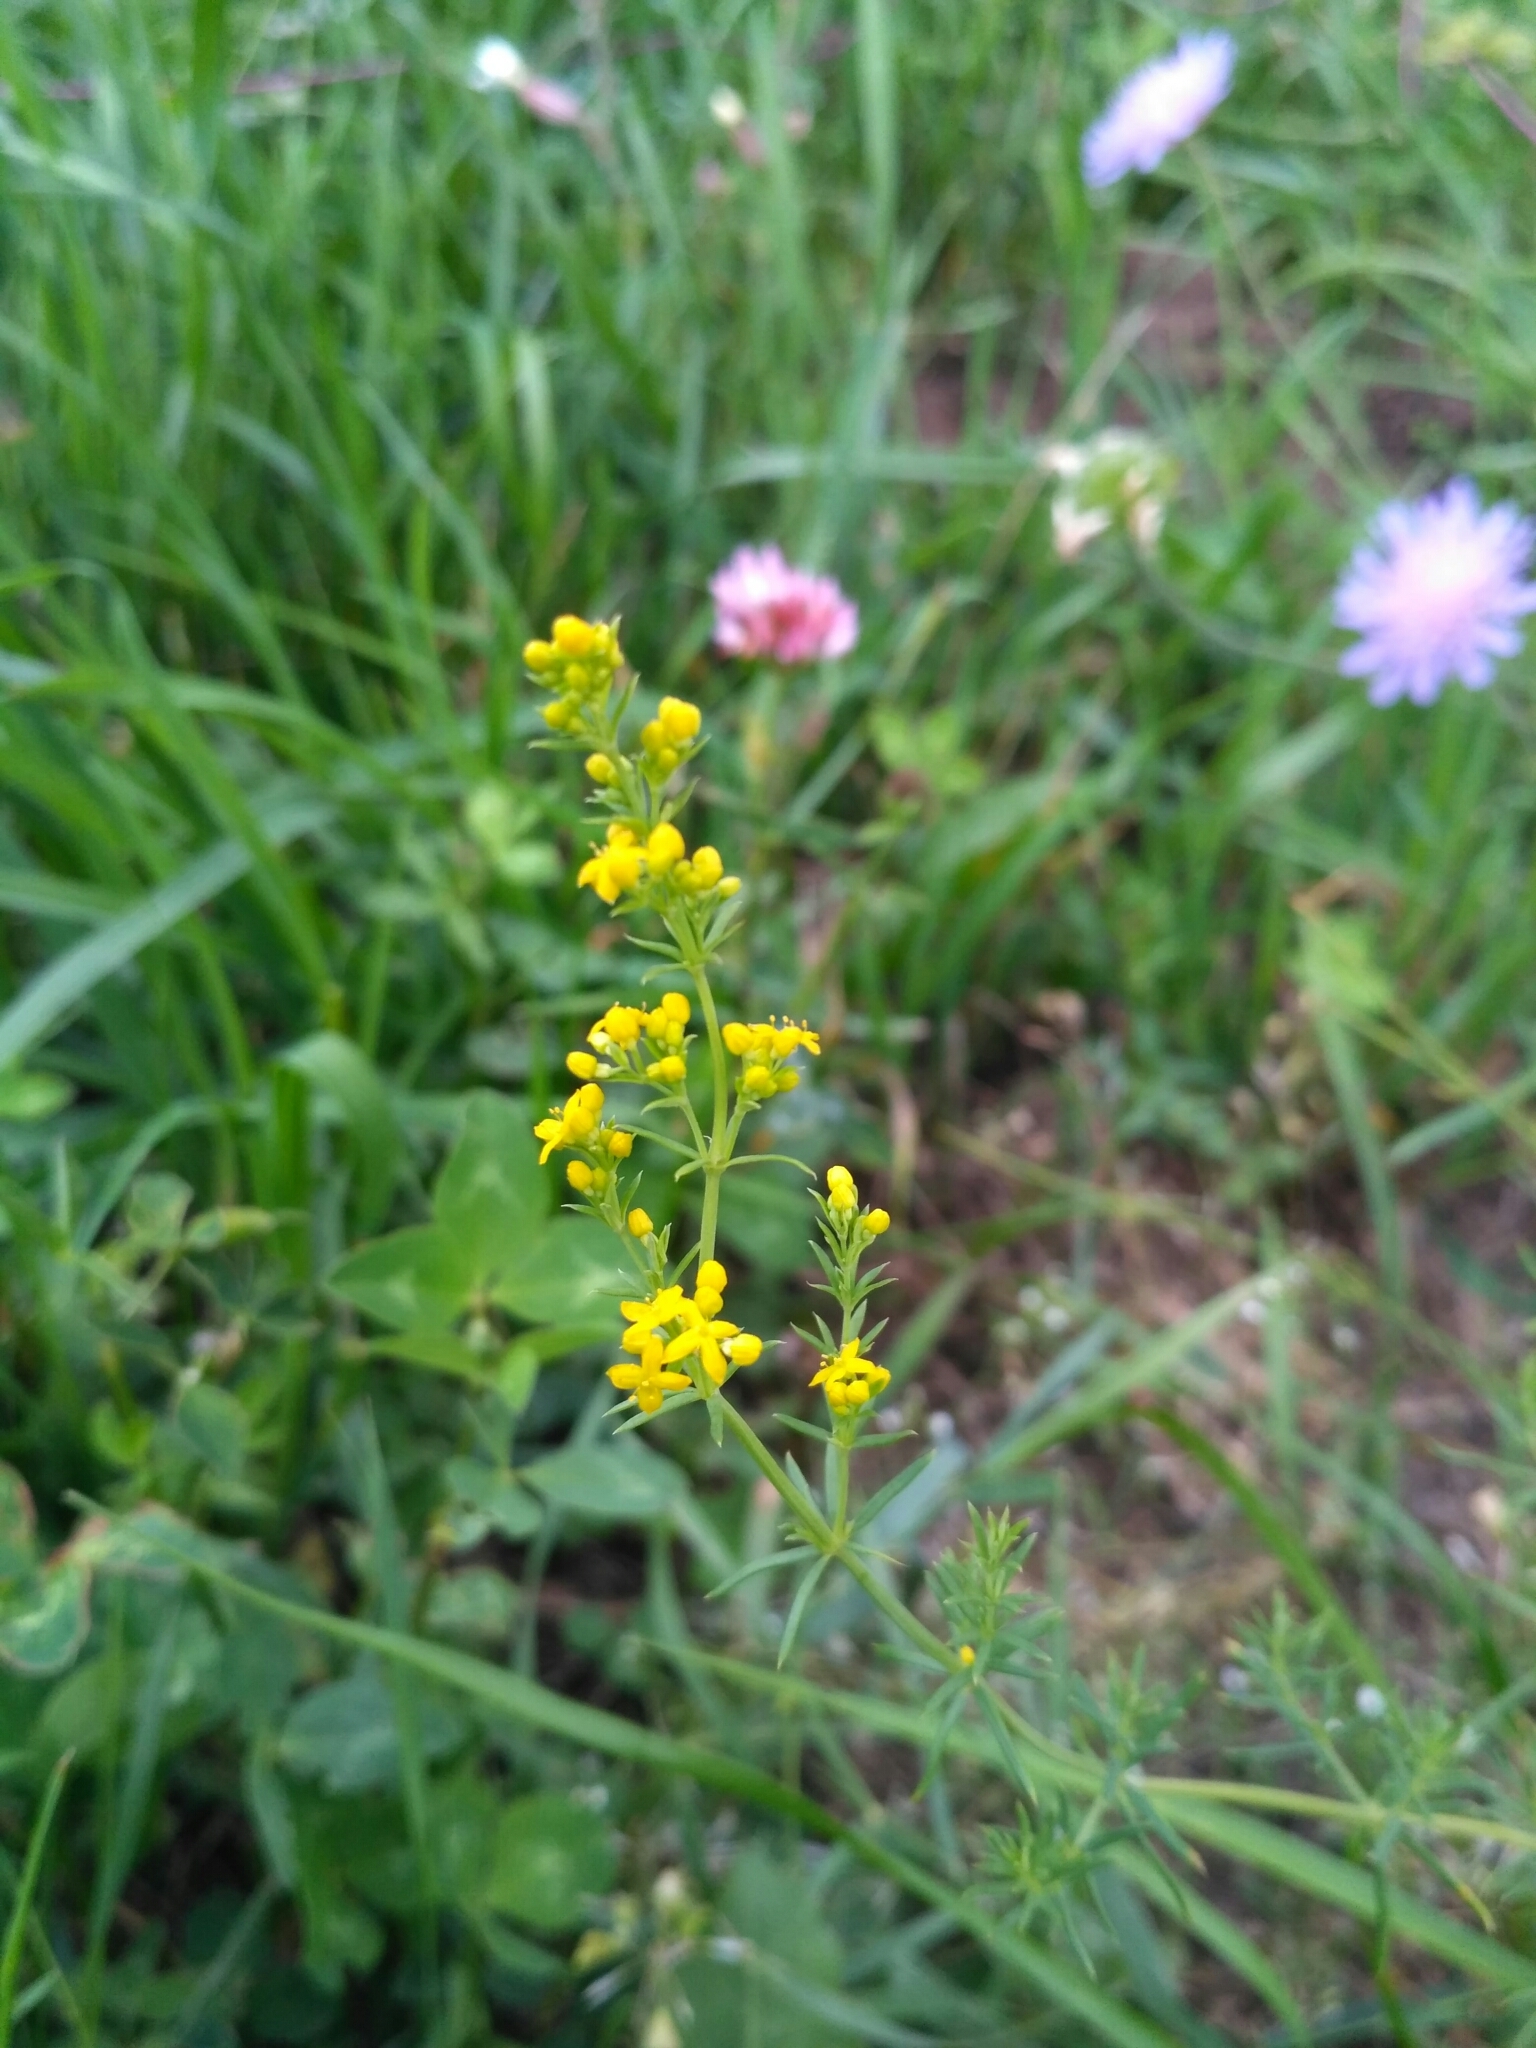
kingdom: Plantae
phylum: Tracheophyta
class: Magnoliopsida
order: Gentianales
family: Rubiaceae
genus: Galium
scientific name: Galium verum
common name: Lady's bedstraw
